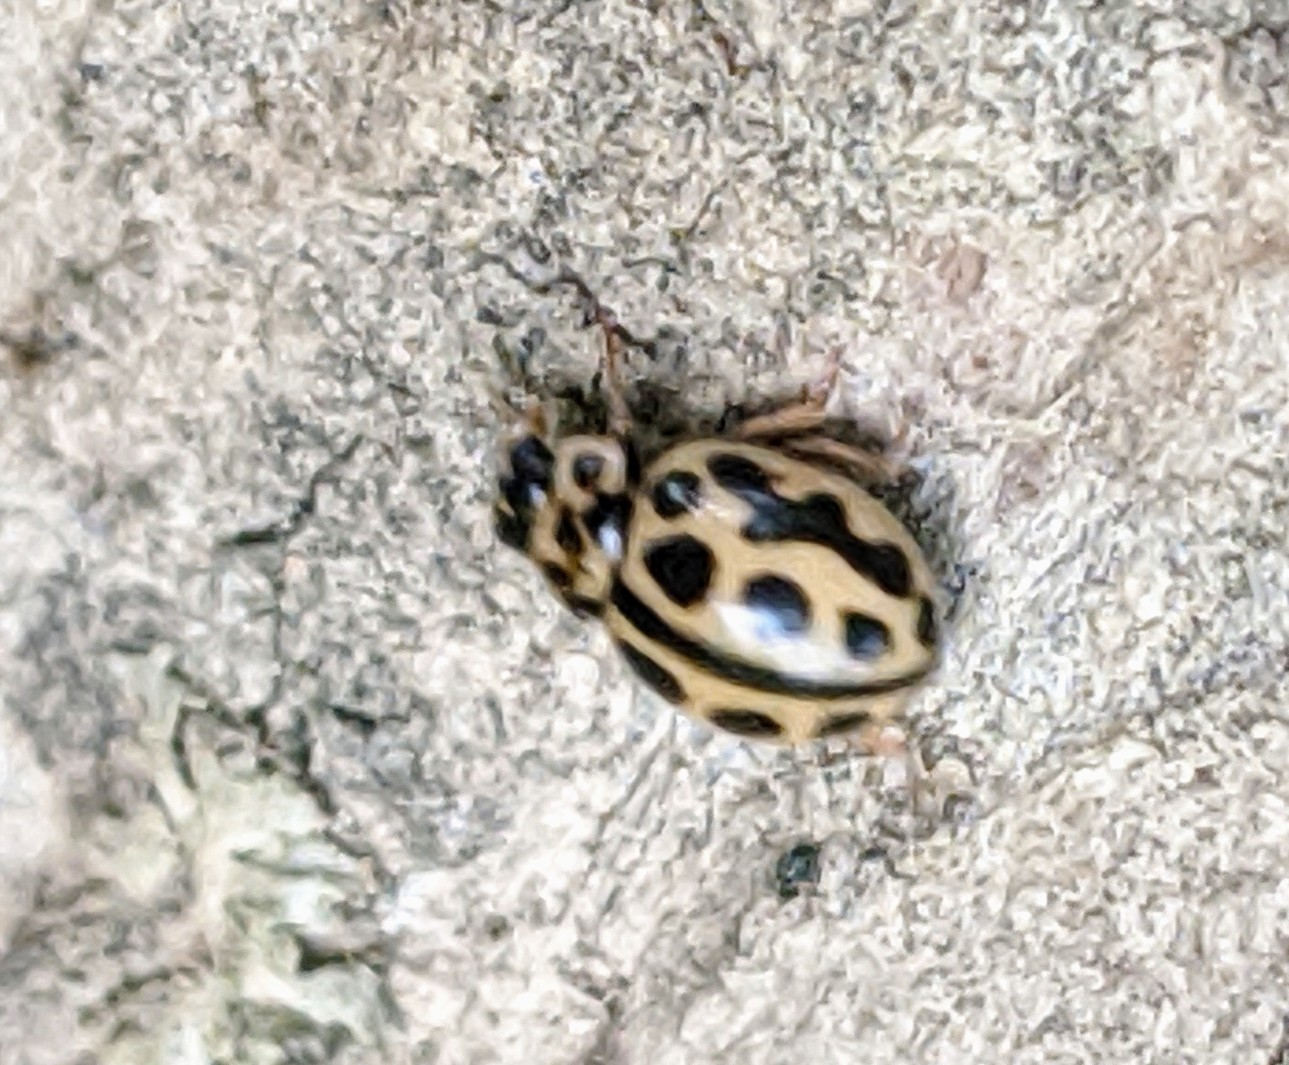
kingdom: Animalia
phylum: Arthropoda
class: Insecta
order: Coleoptera
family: Coccinellidae
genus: Tytthaspis
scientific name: Tytthaspis sedecimpunctata
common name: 16-spot ladybird
